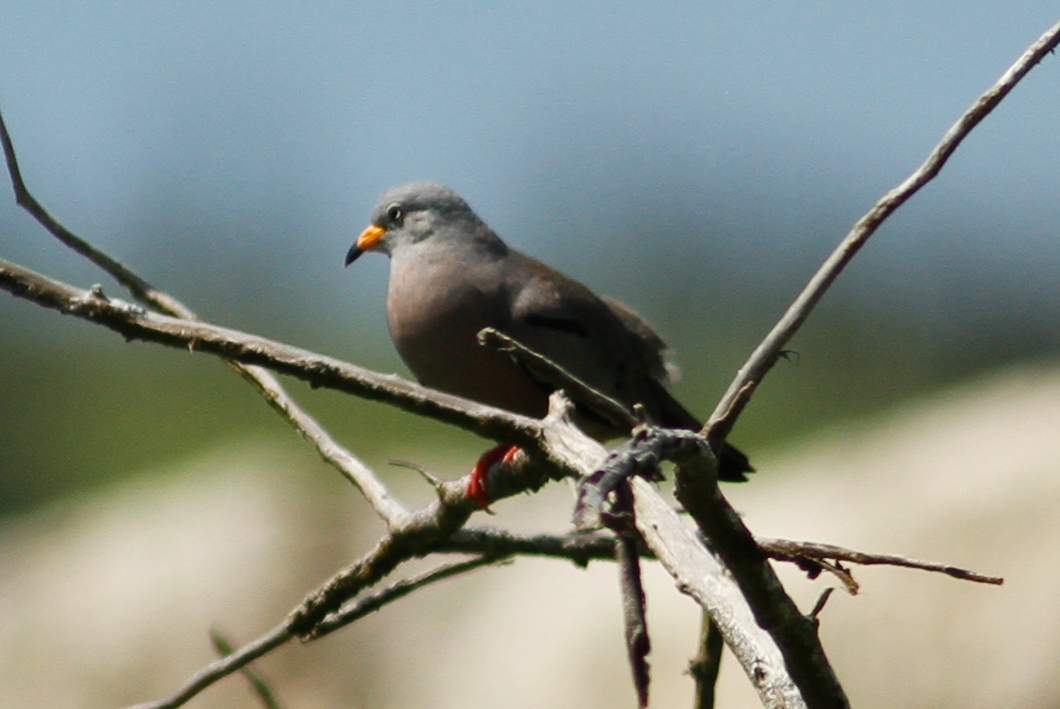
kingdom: Animalia
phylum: Chordata
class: Aves
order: Columbiformes
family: Columbidae
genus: Columbina
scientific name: Columbina cruziana
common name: Croaking ground dove
